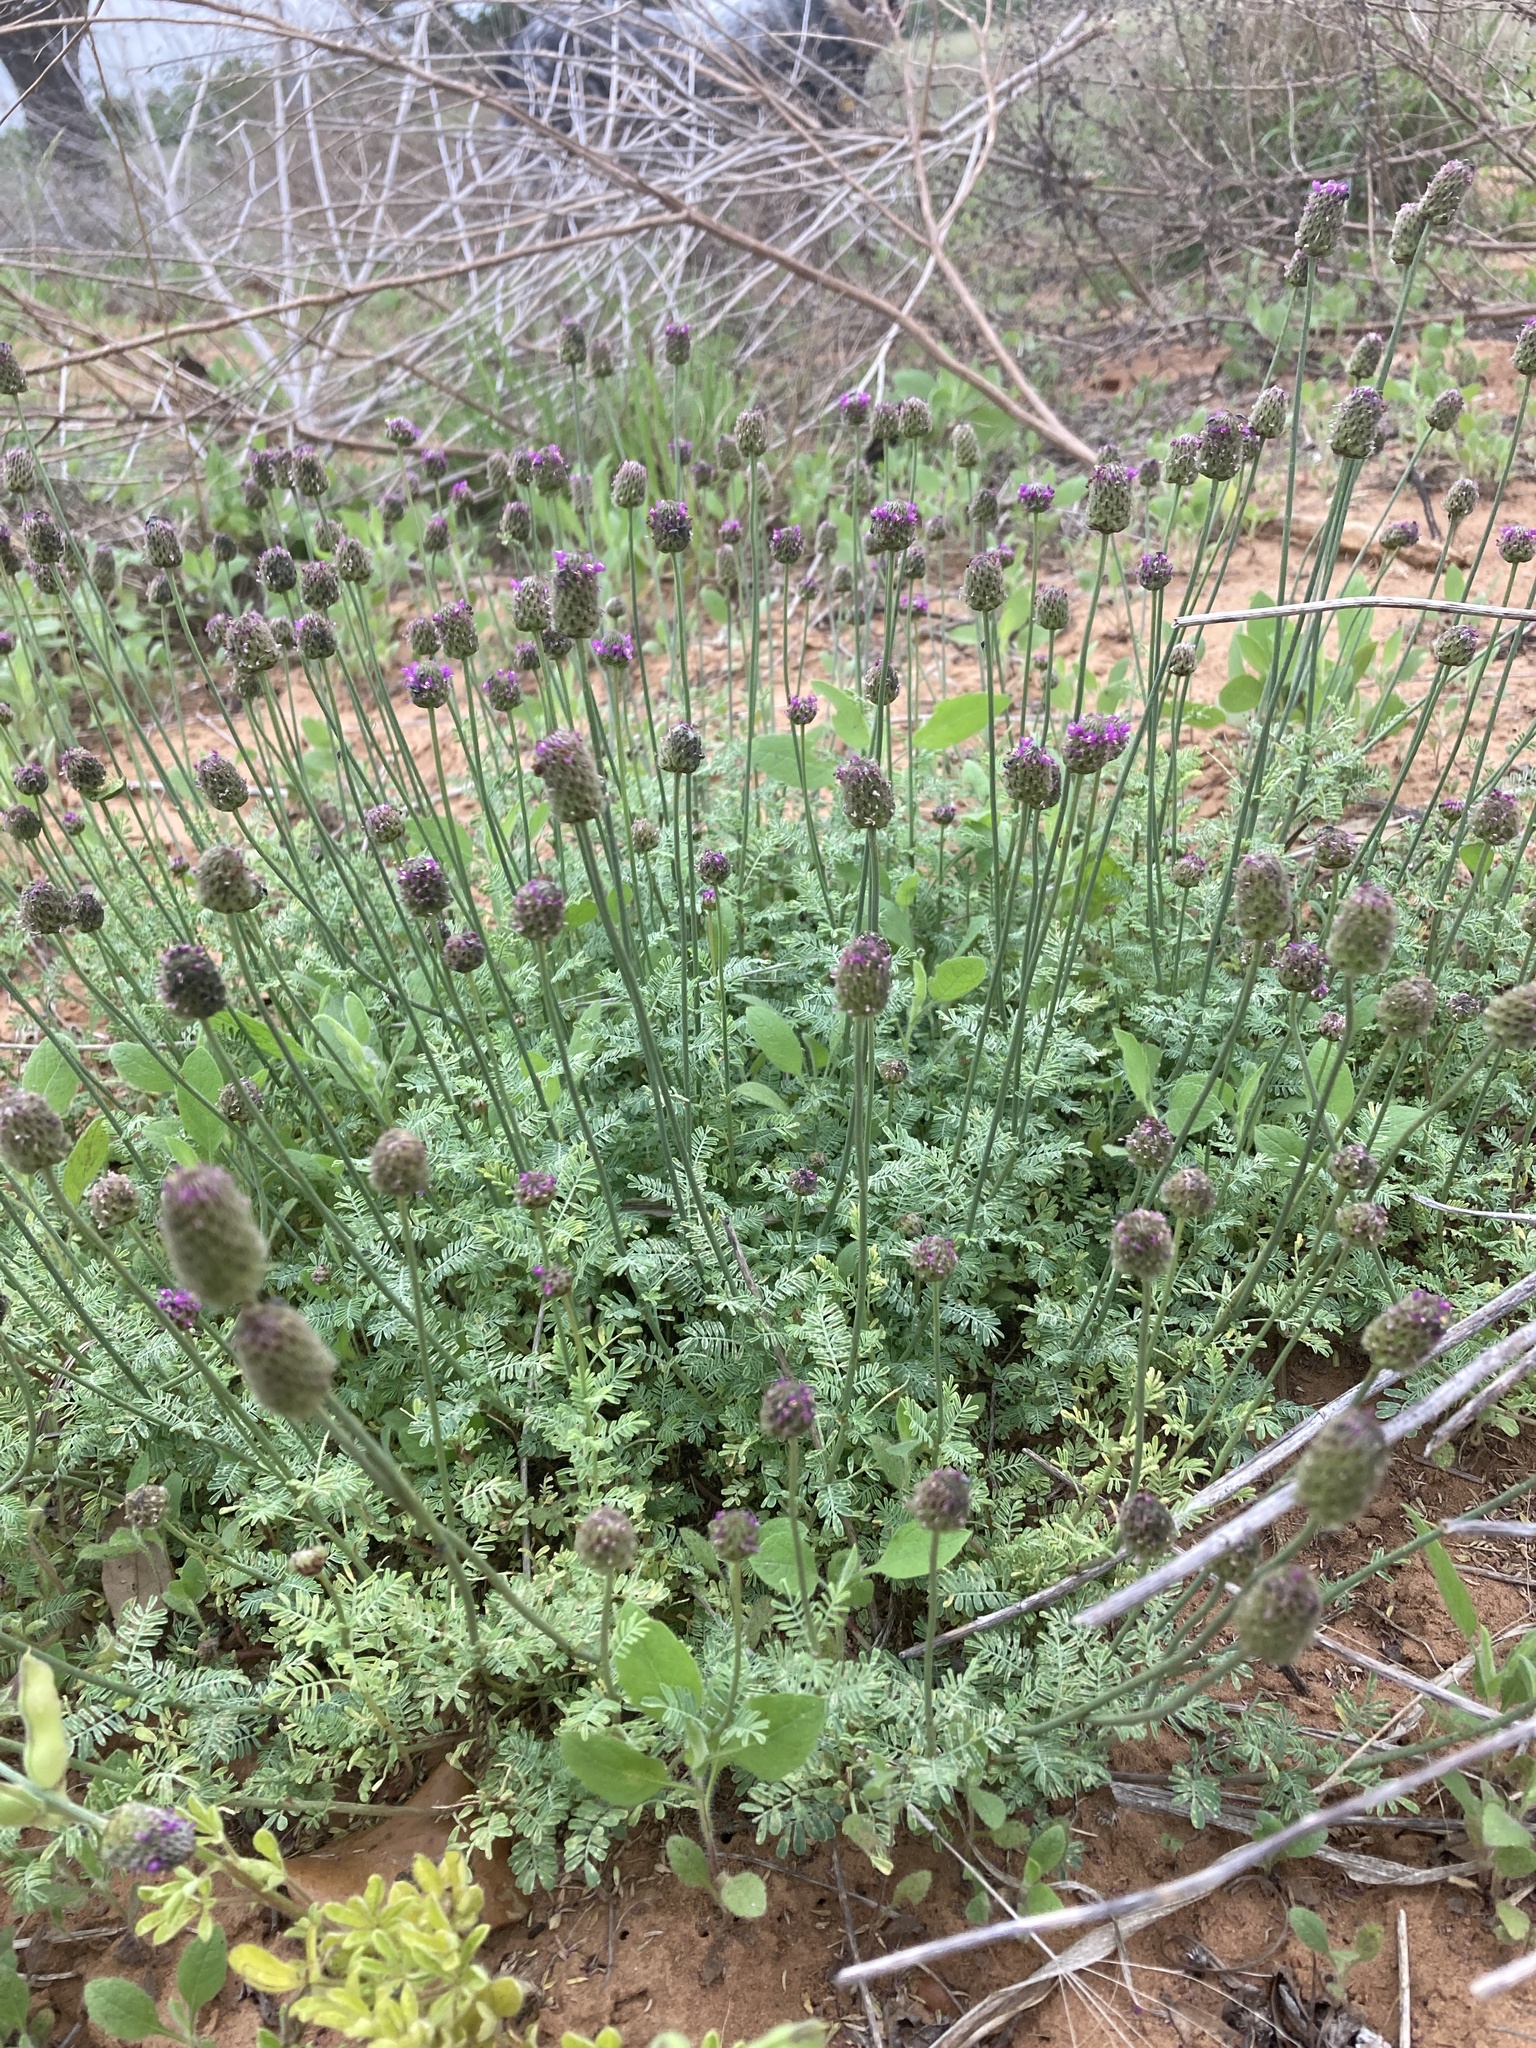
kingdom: Plantae
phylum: Tracheophyta
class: Magnoliopsida
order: Fabales
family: Fabaceae
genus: Dalea
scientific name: Dalea emarginata
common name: Wedgeleaf prairie clover
